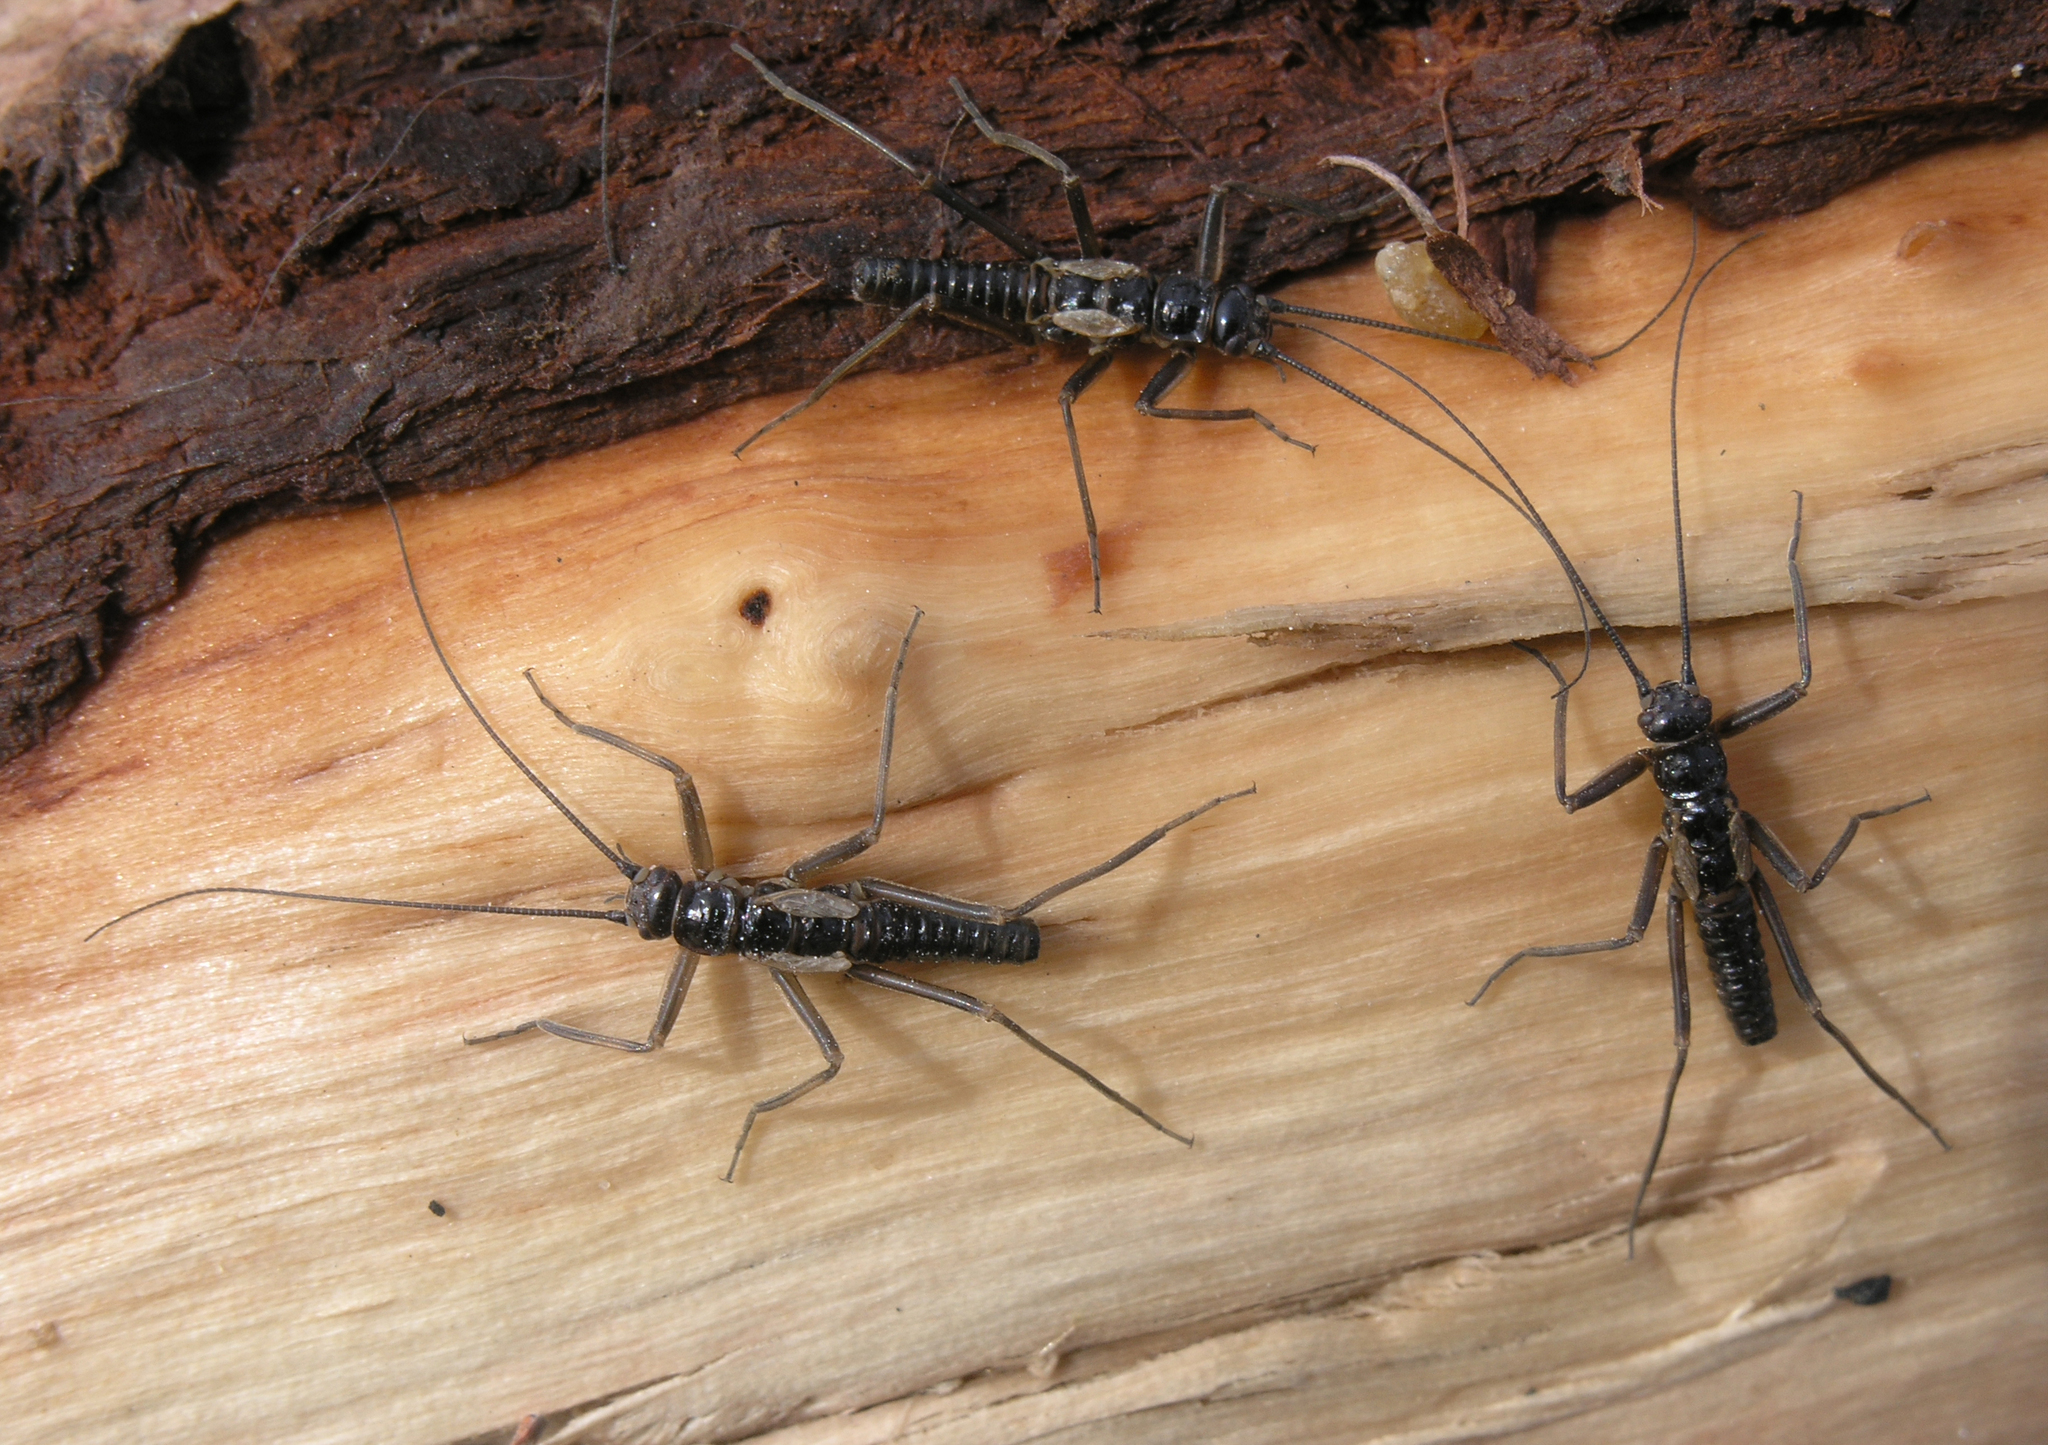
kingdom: Animalia
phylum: Arthropoda
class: Insecta
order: Plecoptera
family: Taeniopterygidae
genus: Taeniopteryx
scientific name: Taeniopteryx araneoides
